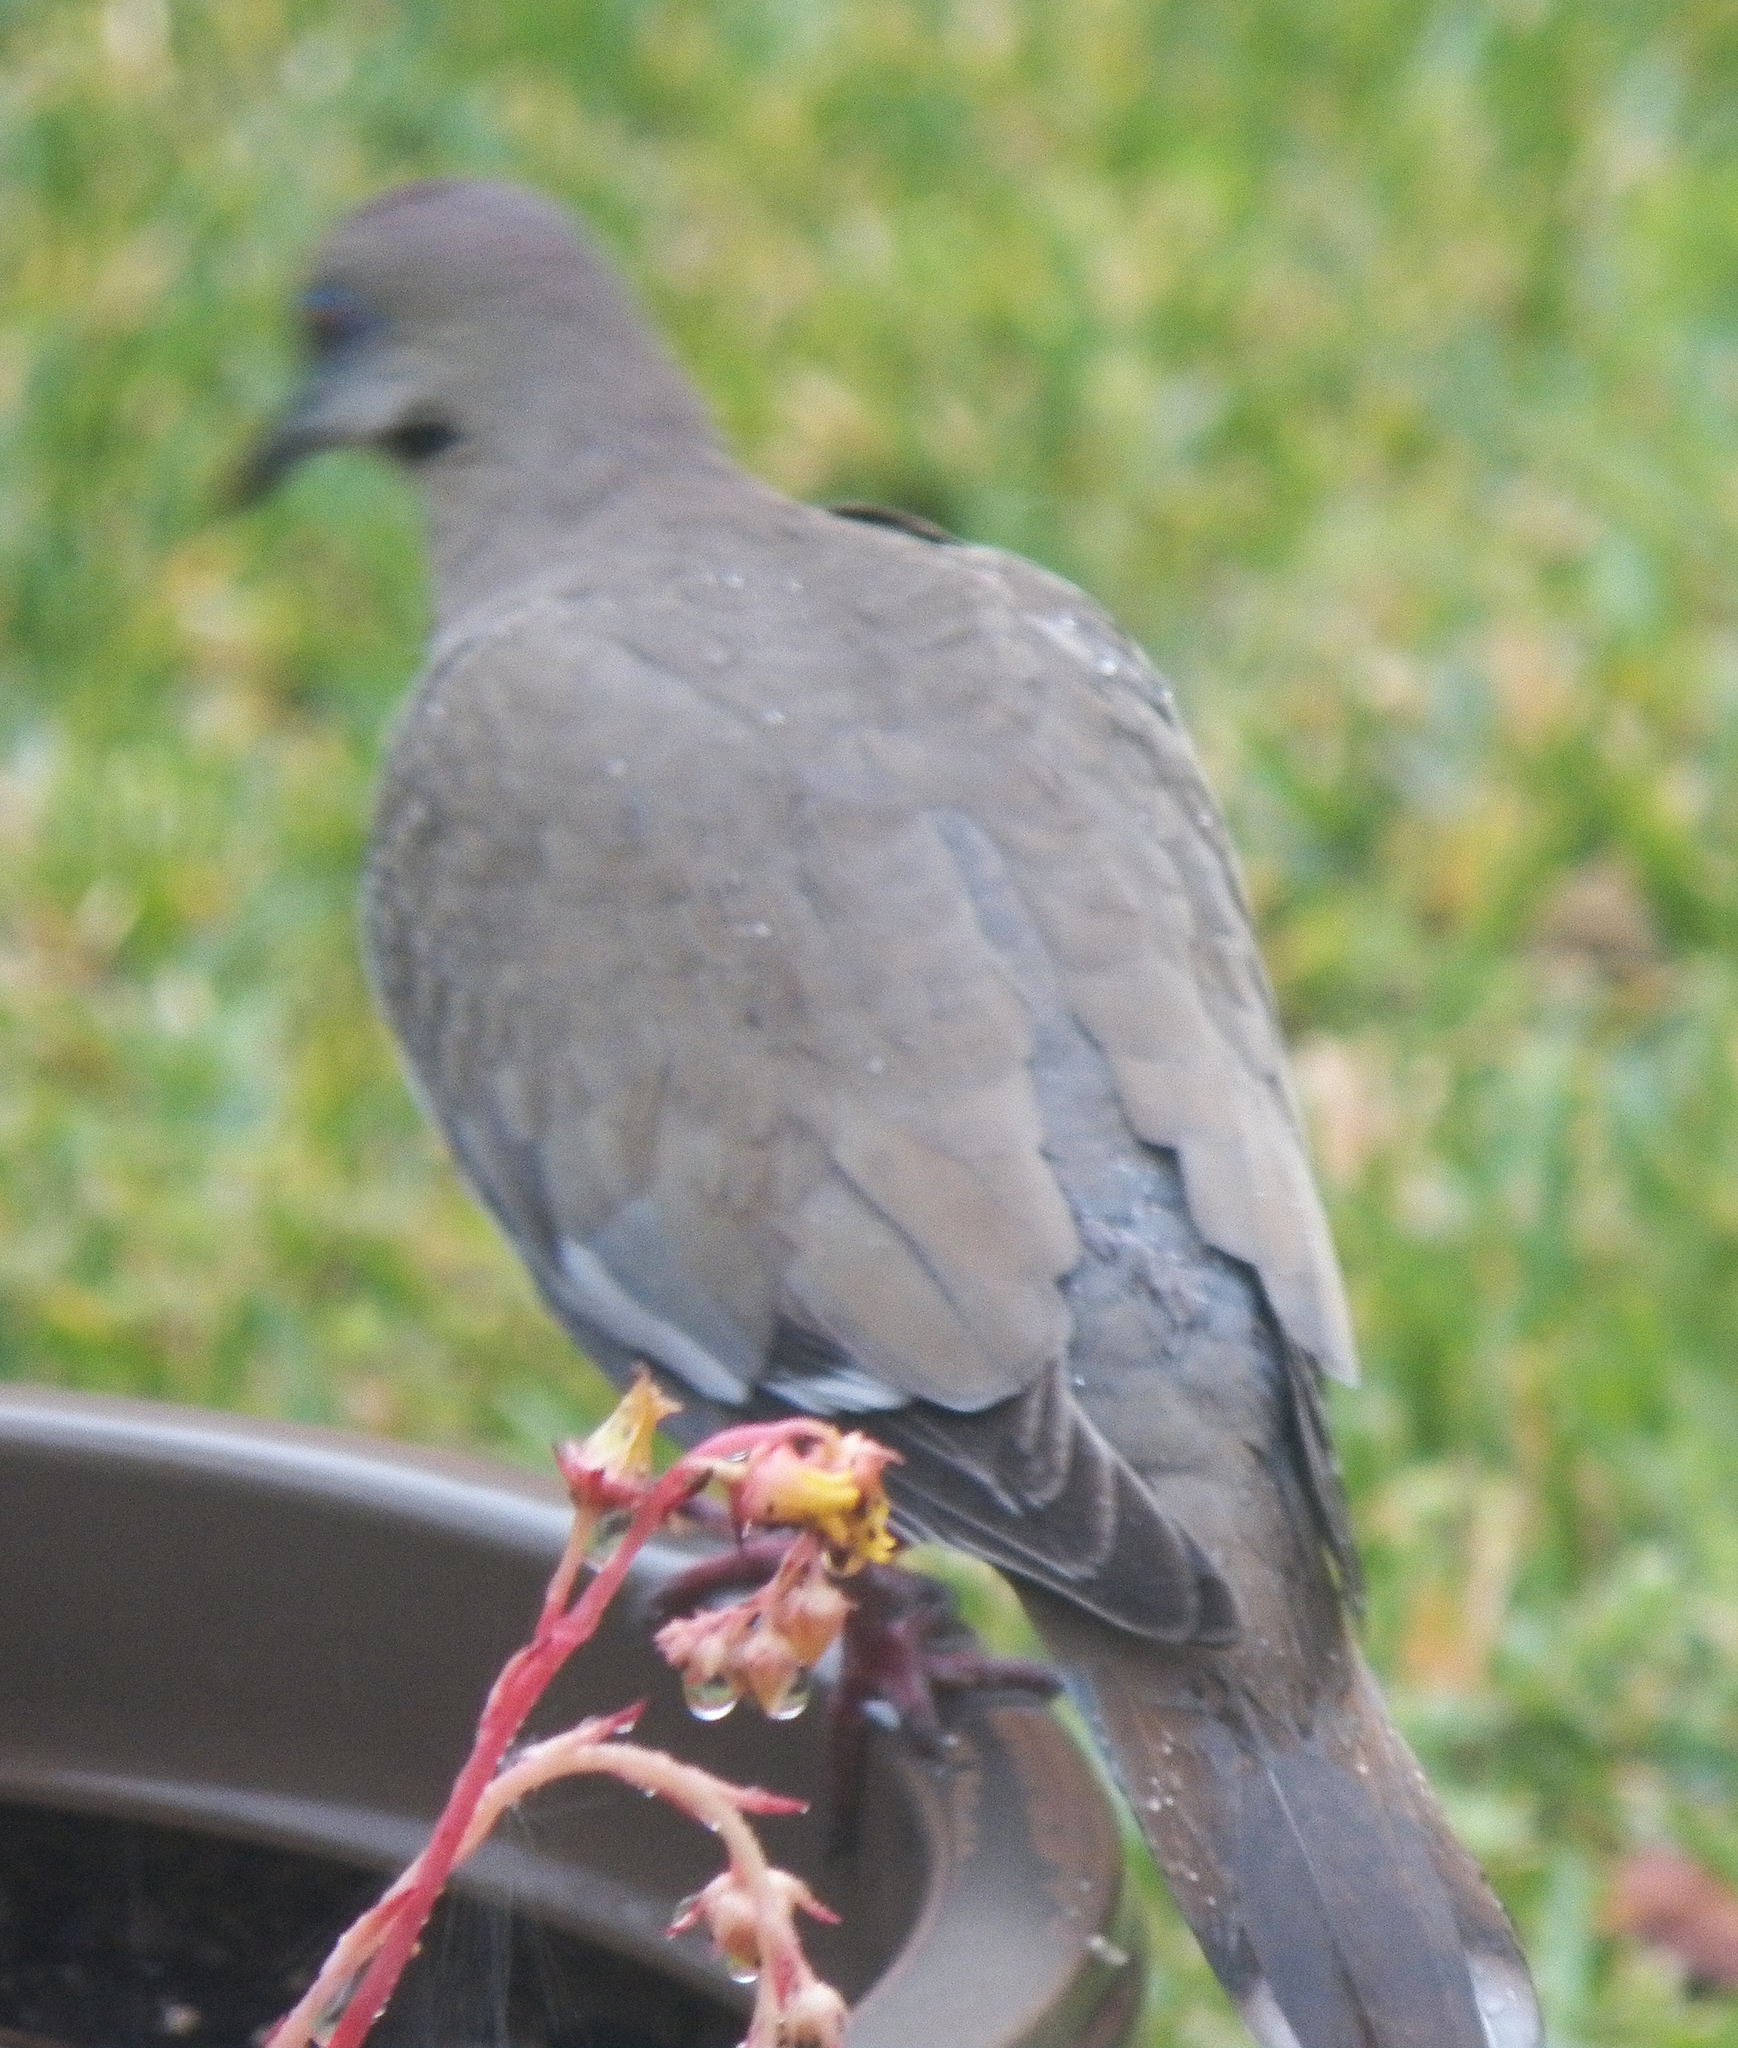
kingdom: Animalia
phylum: Chordata
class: Aves
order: Columbiformes
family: Columbidae
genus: Zenaida
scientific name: Zenaida asiatica
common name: White-winged dove
